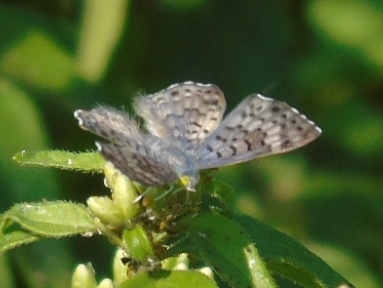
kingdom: Animalia
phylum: Arthropoda
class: Insecta
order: Diptera
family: Acroceridae
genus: Lasia
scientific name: Lasia
